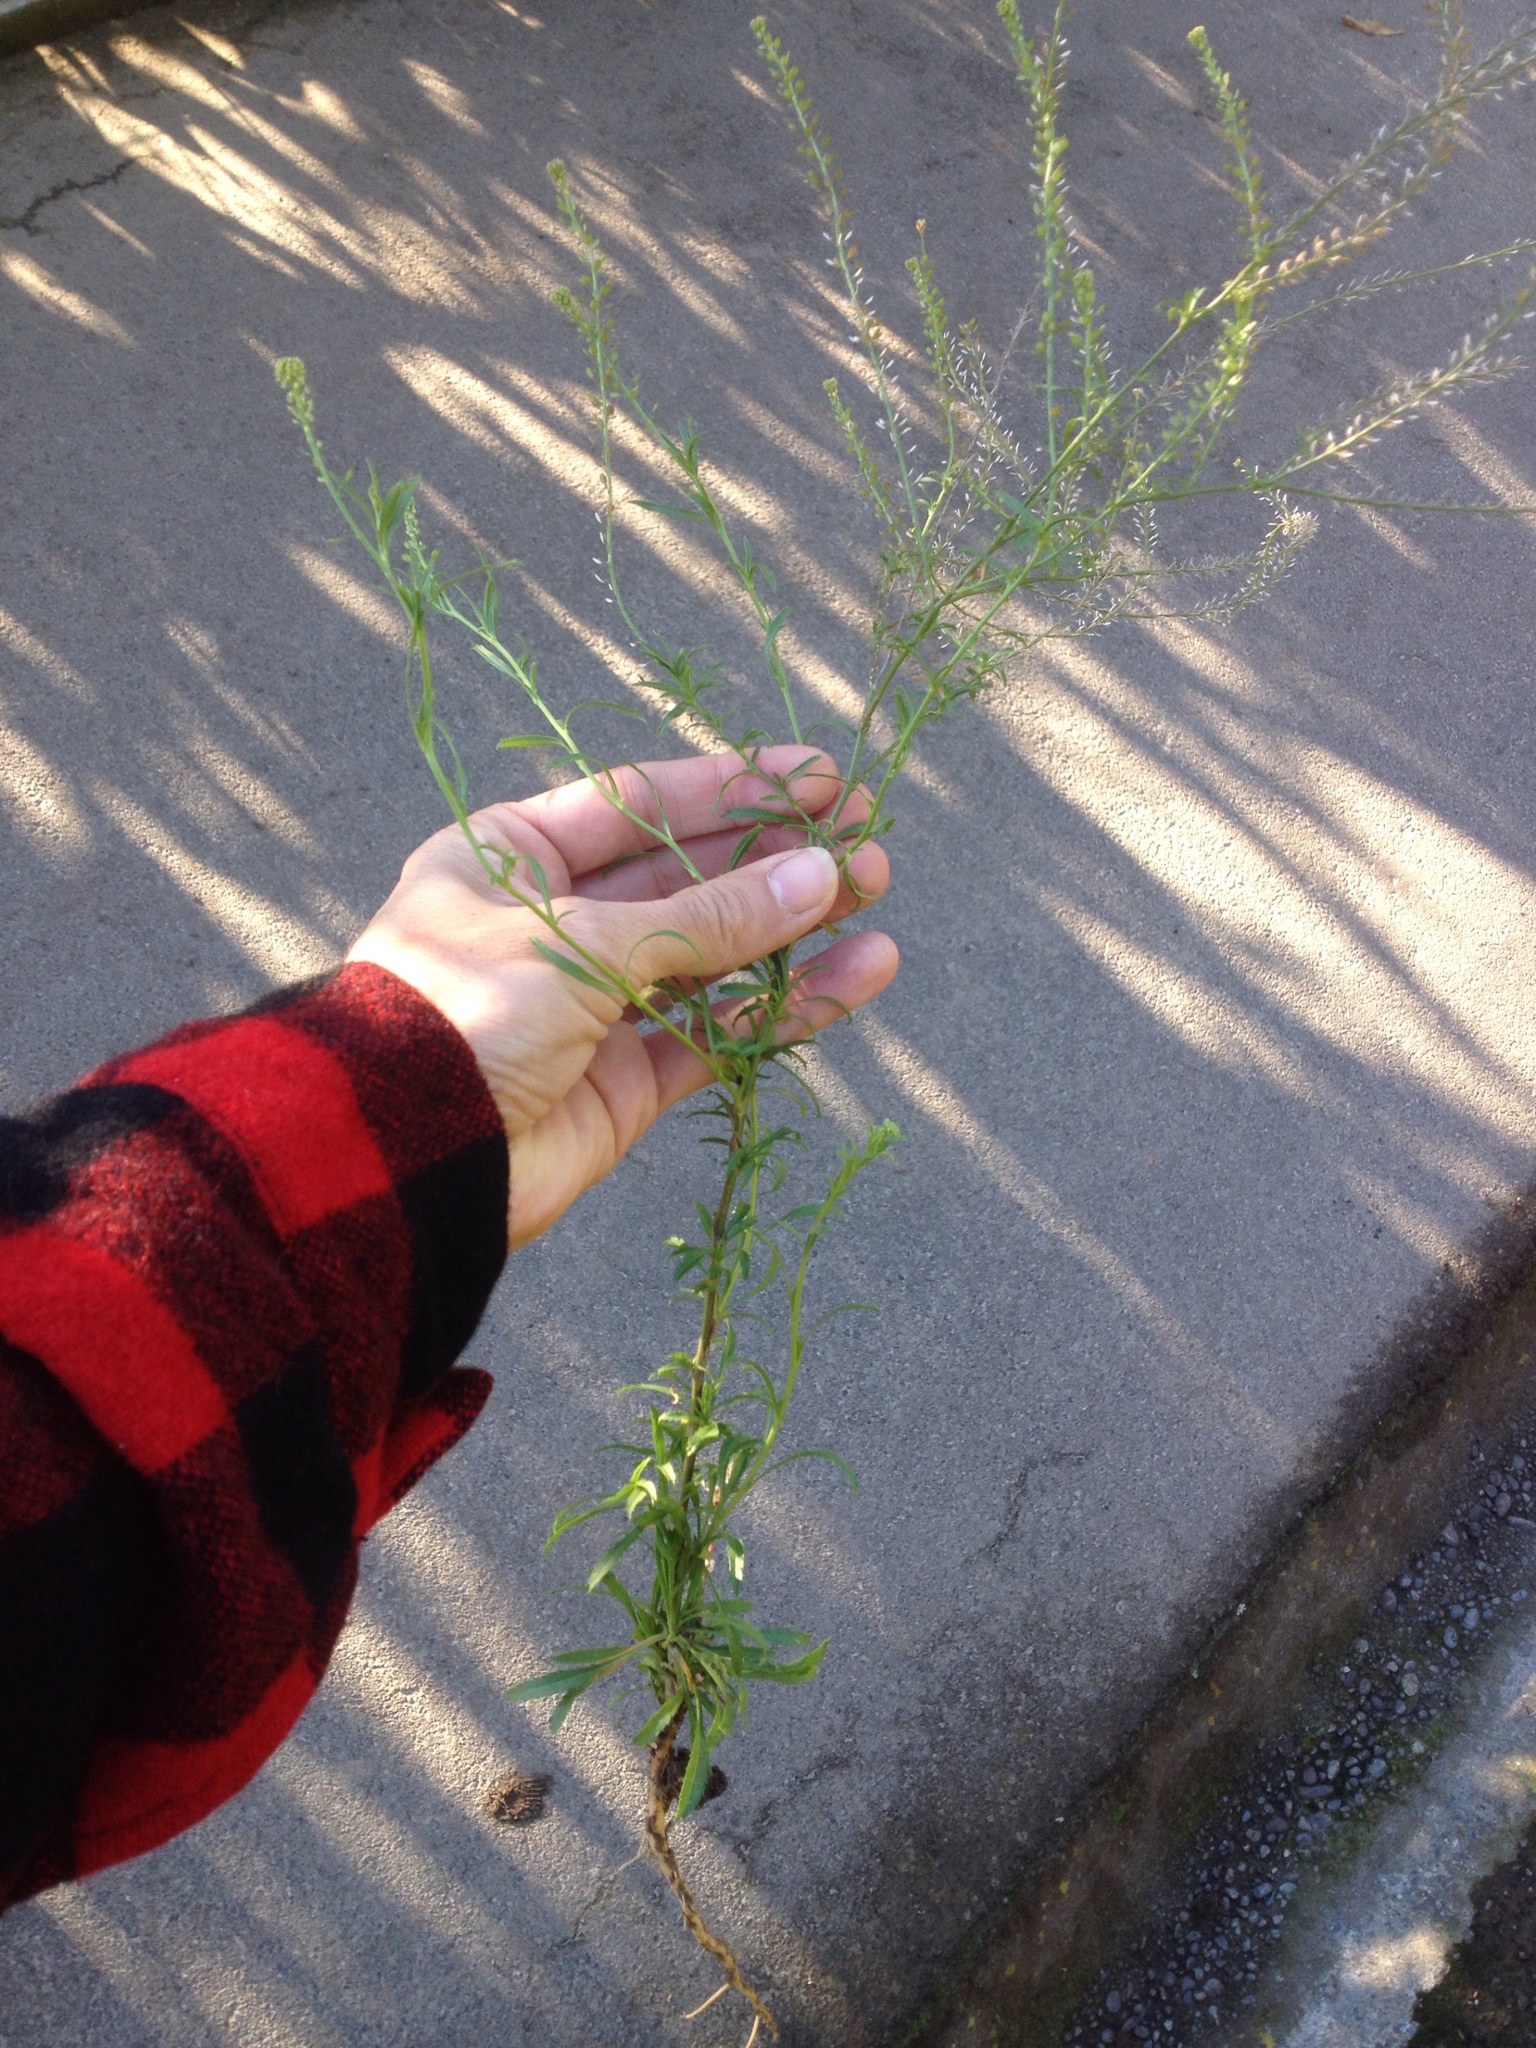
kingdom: Plantae
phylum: Tracheophyta
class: Magnoliopsida
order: Brassicales
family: Brassicaceae
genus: Lepidium
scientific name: Lepidium africanum
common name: African pepperwort
